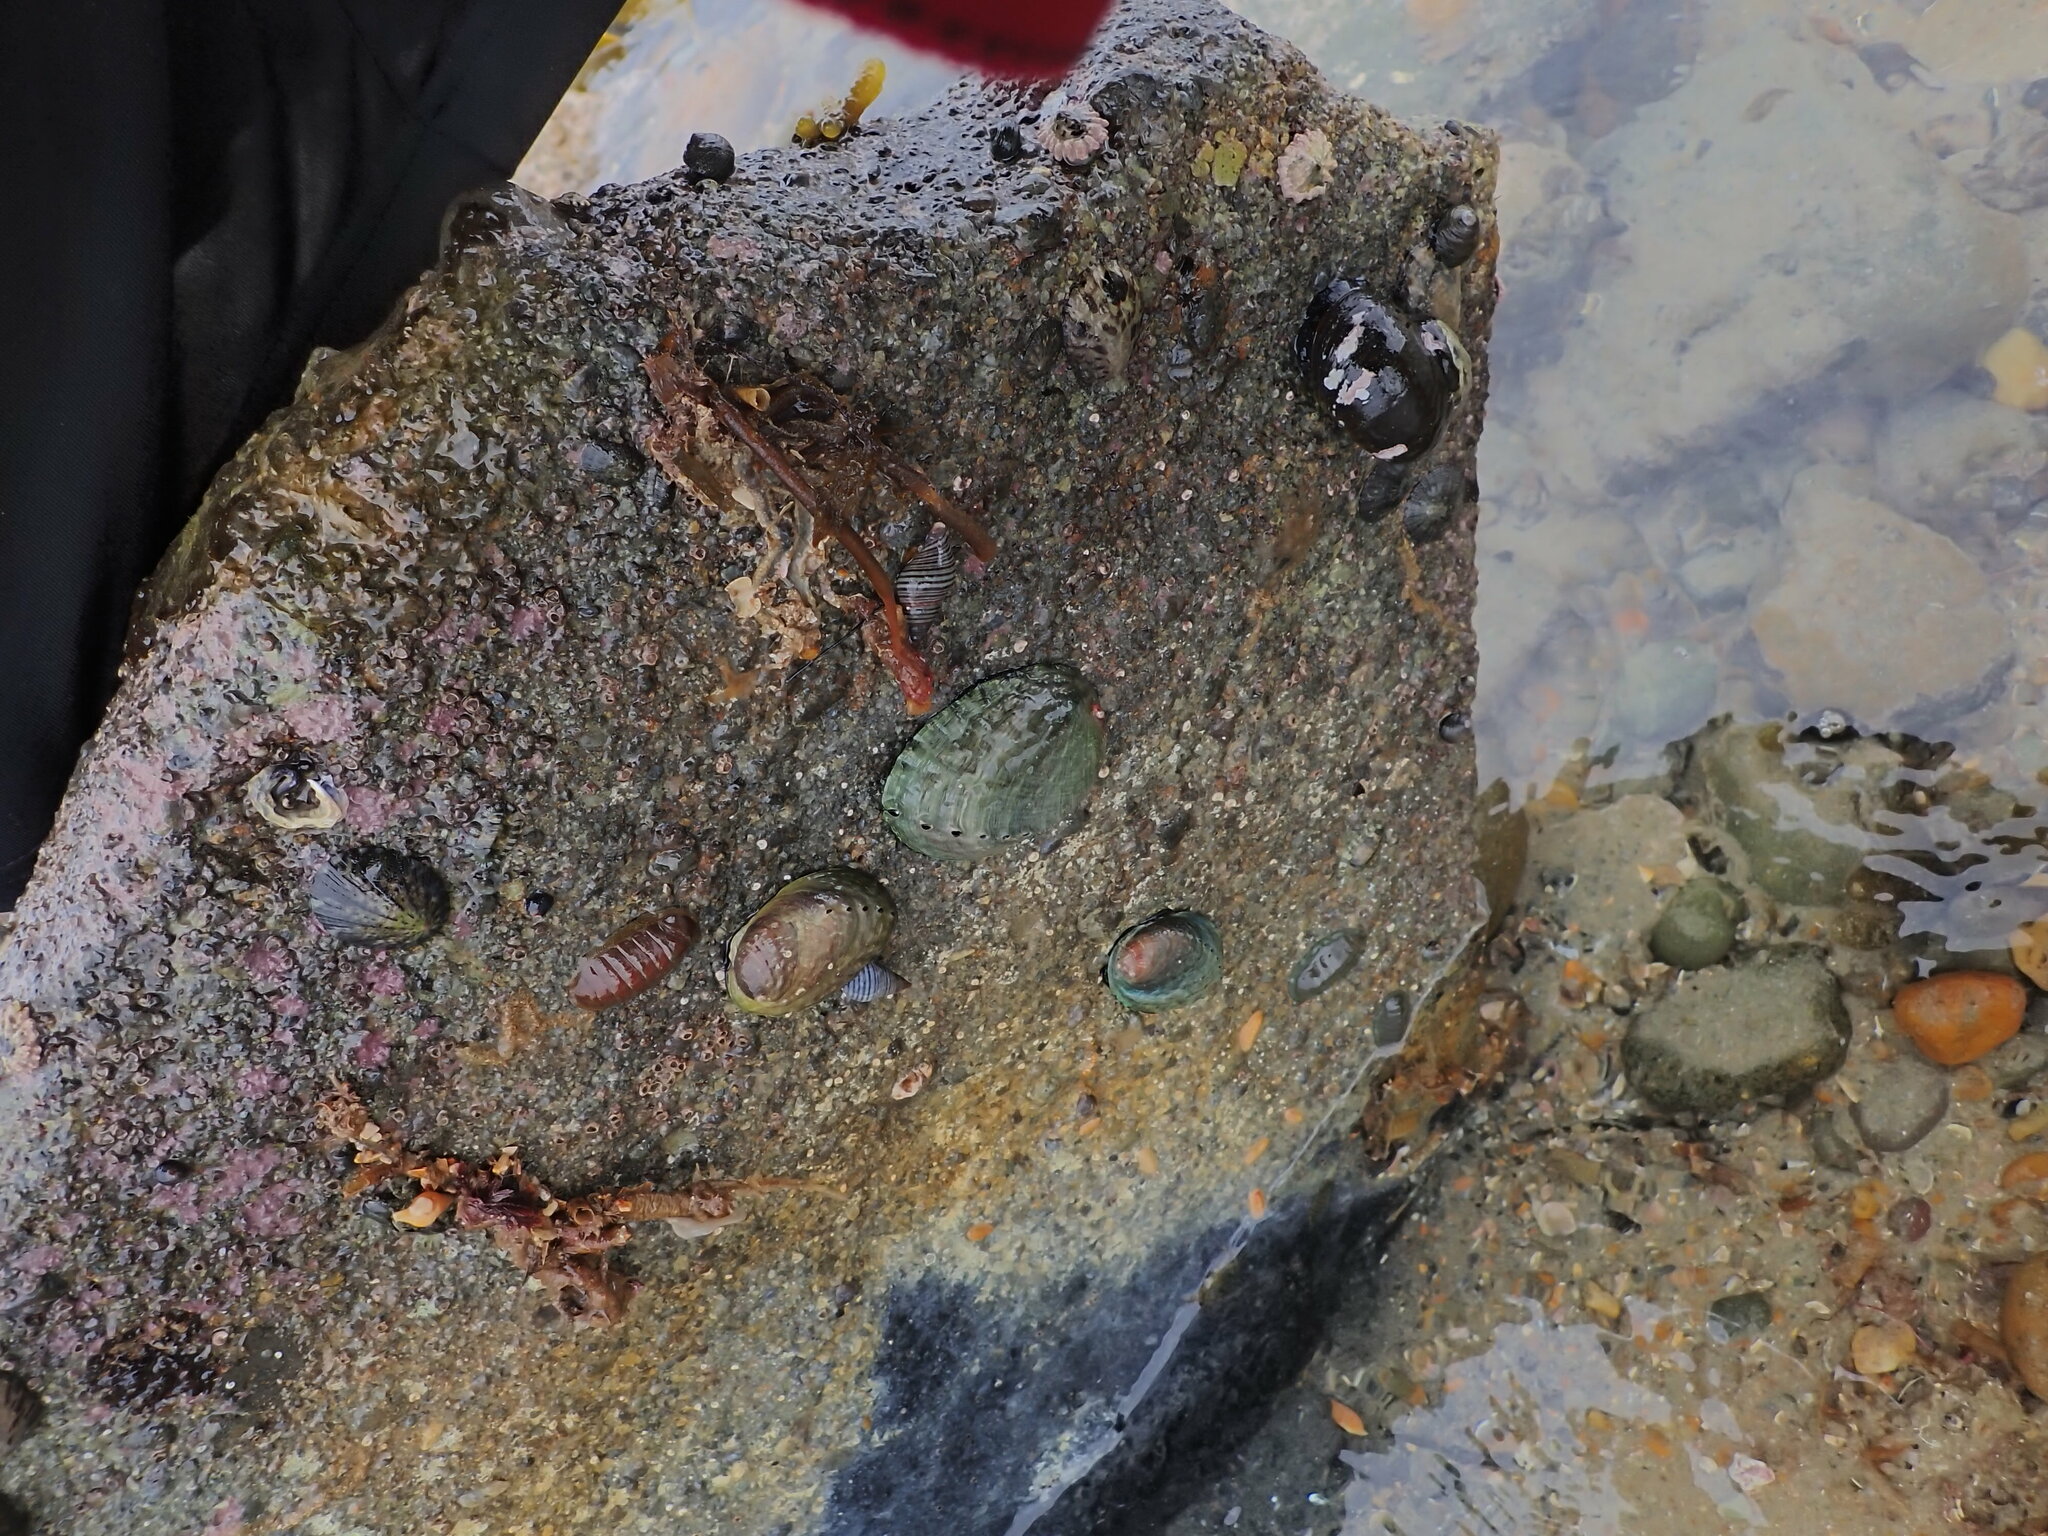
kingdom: Animalia
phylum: Mollusca
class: Polyplacophora
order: Chitonida
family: Chitonidae
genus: Chiton
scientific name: Chiton glaucus
